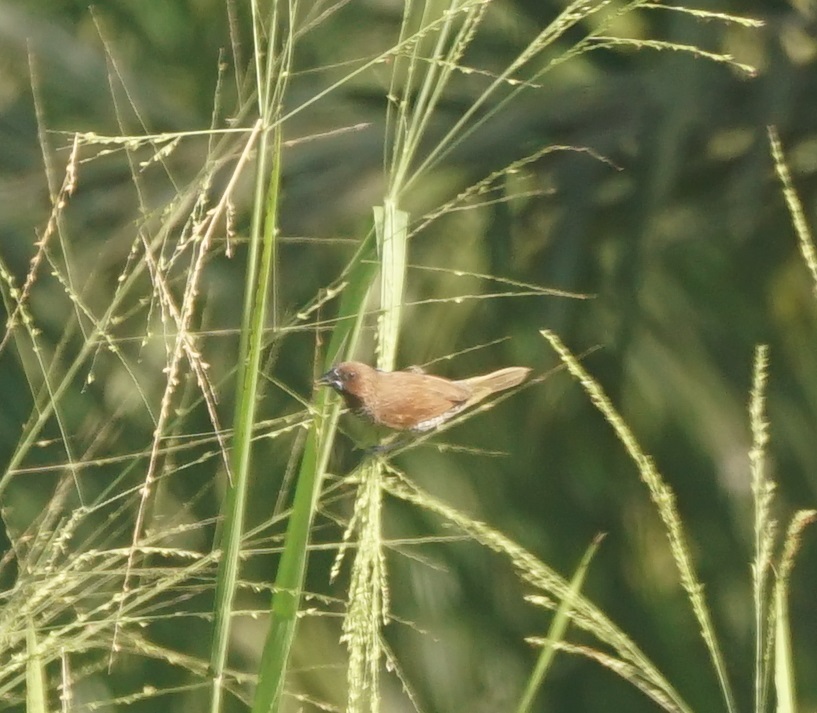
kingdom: Animalia
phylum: Chordata
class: Aves
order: Passeriformes
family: Estrildidae
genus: Lonchura
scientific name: Lonchura punctulata
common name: Scaly-breasted munia
